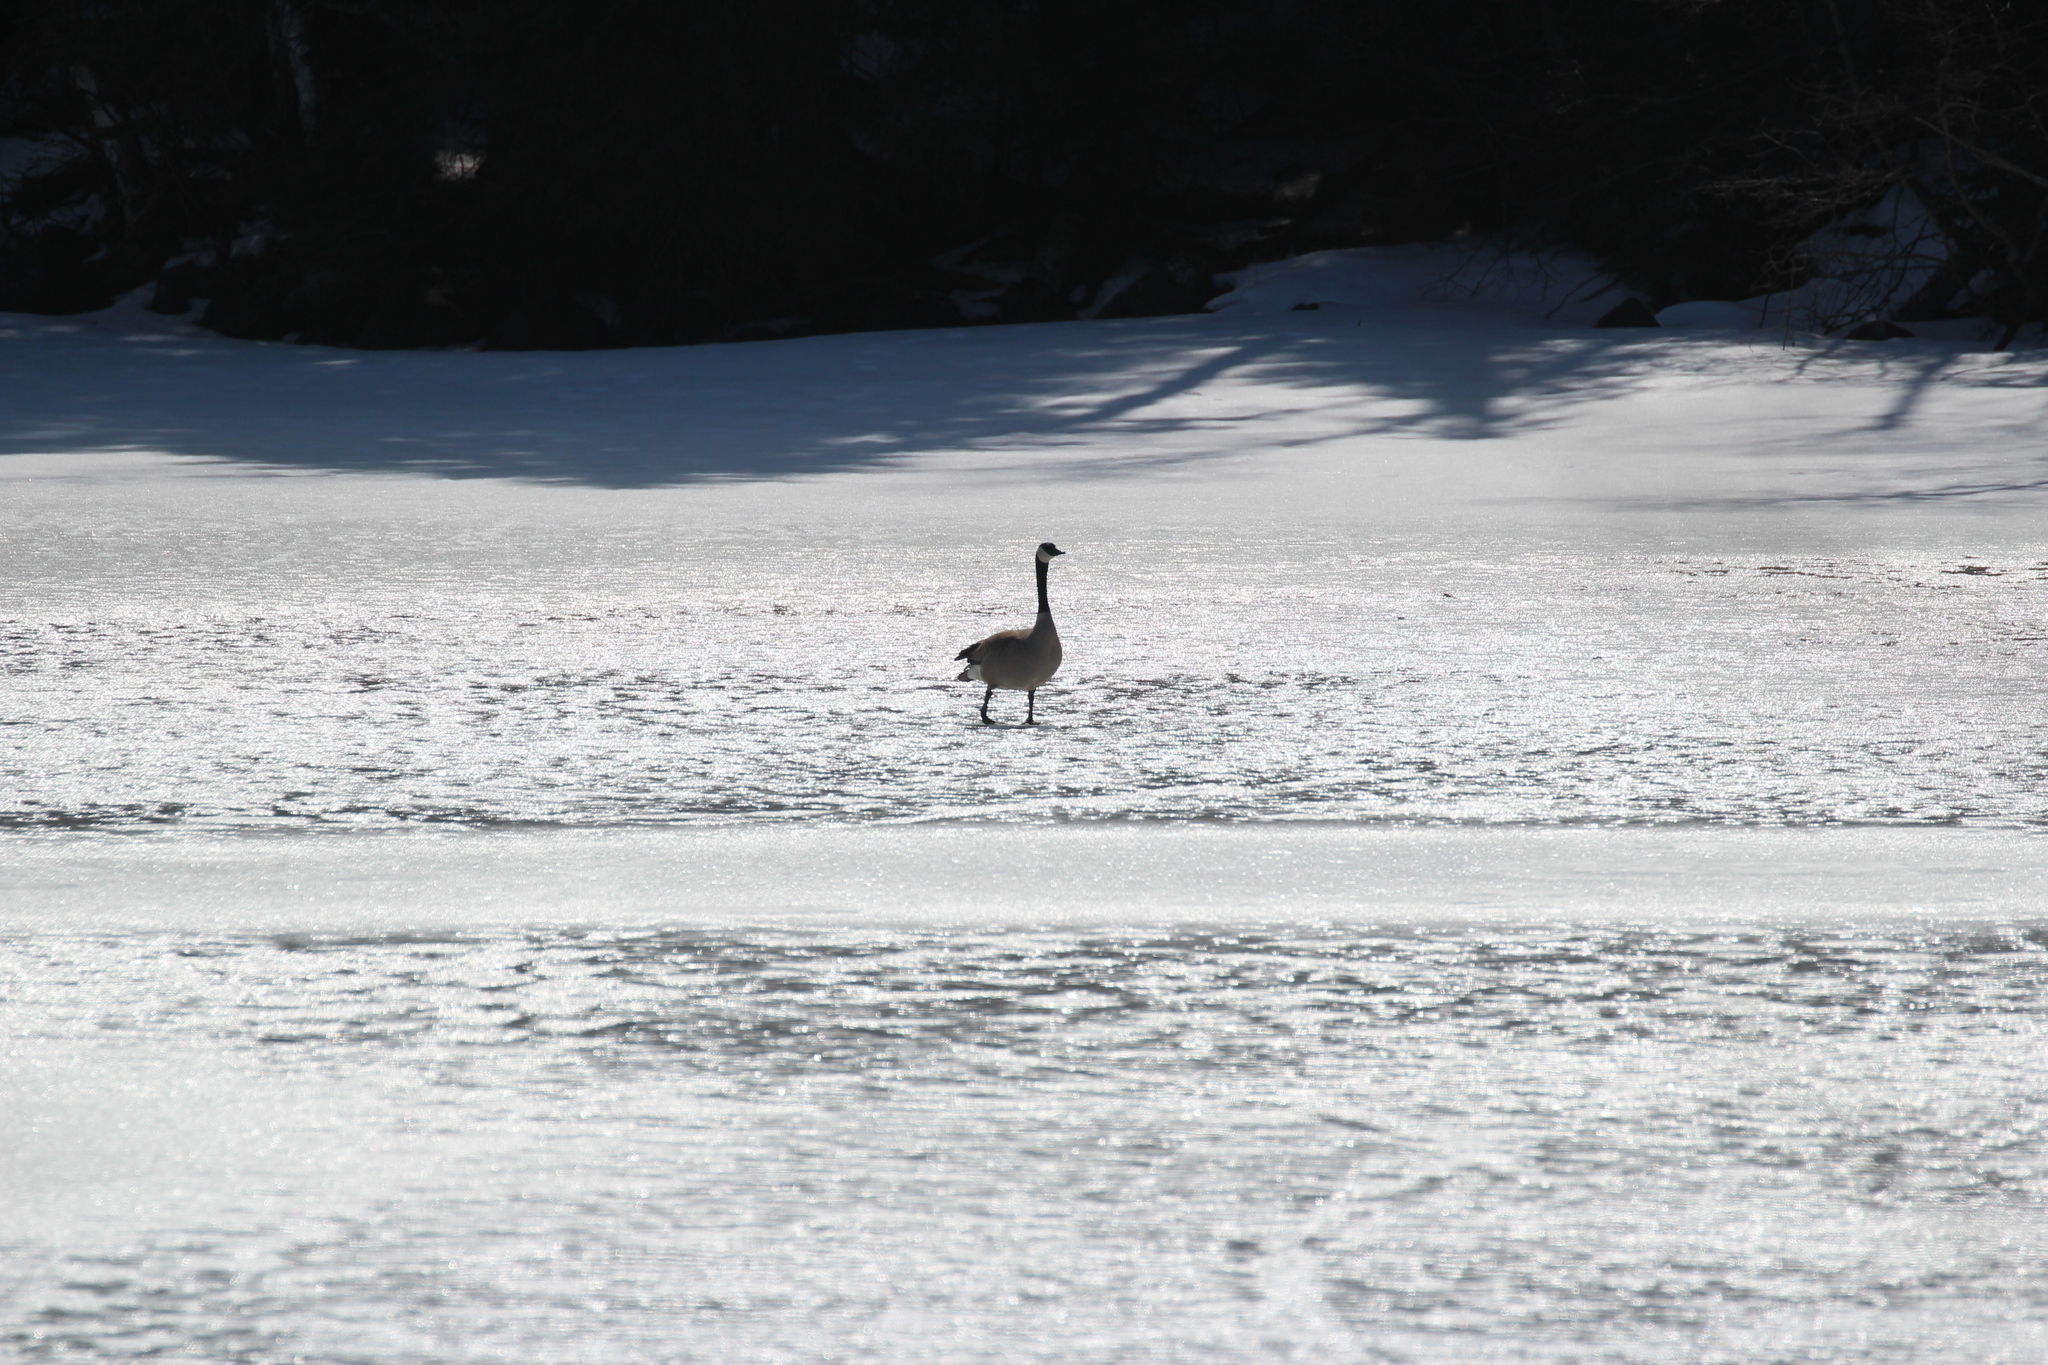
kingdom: Animalia
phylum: Chordata
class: Aves
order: Anseriformes
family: Anatidae
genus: Branta
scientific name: Branta canadensis
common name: Canada goose
